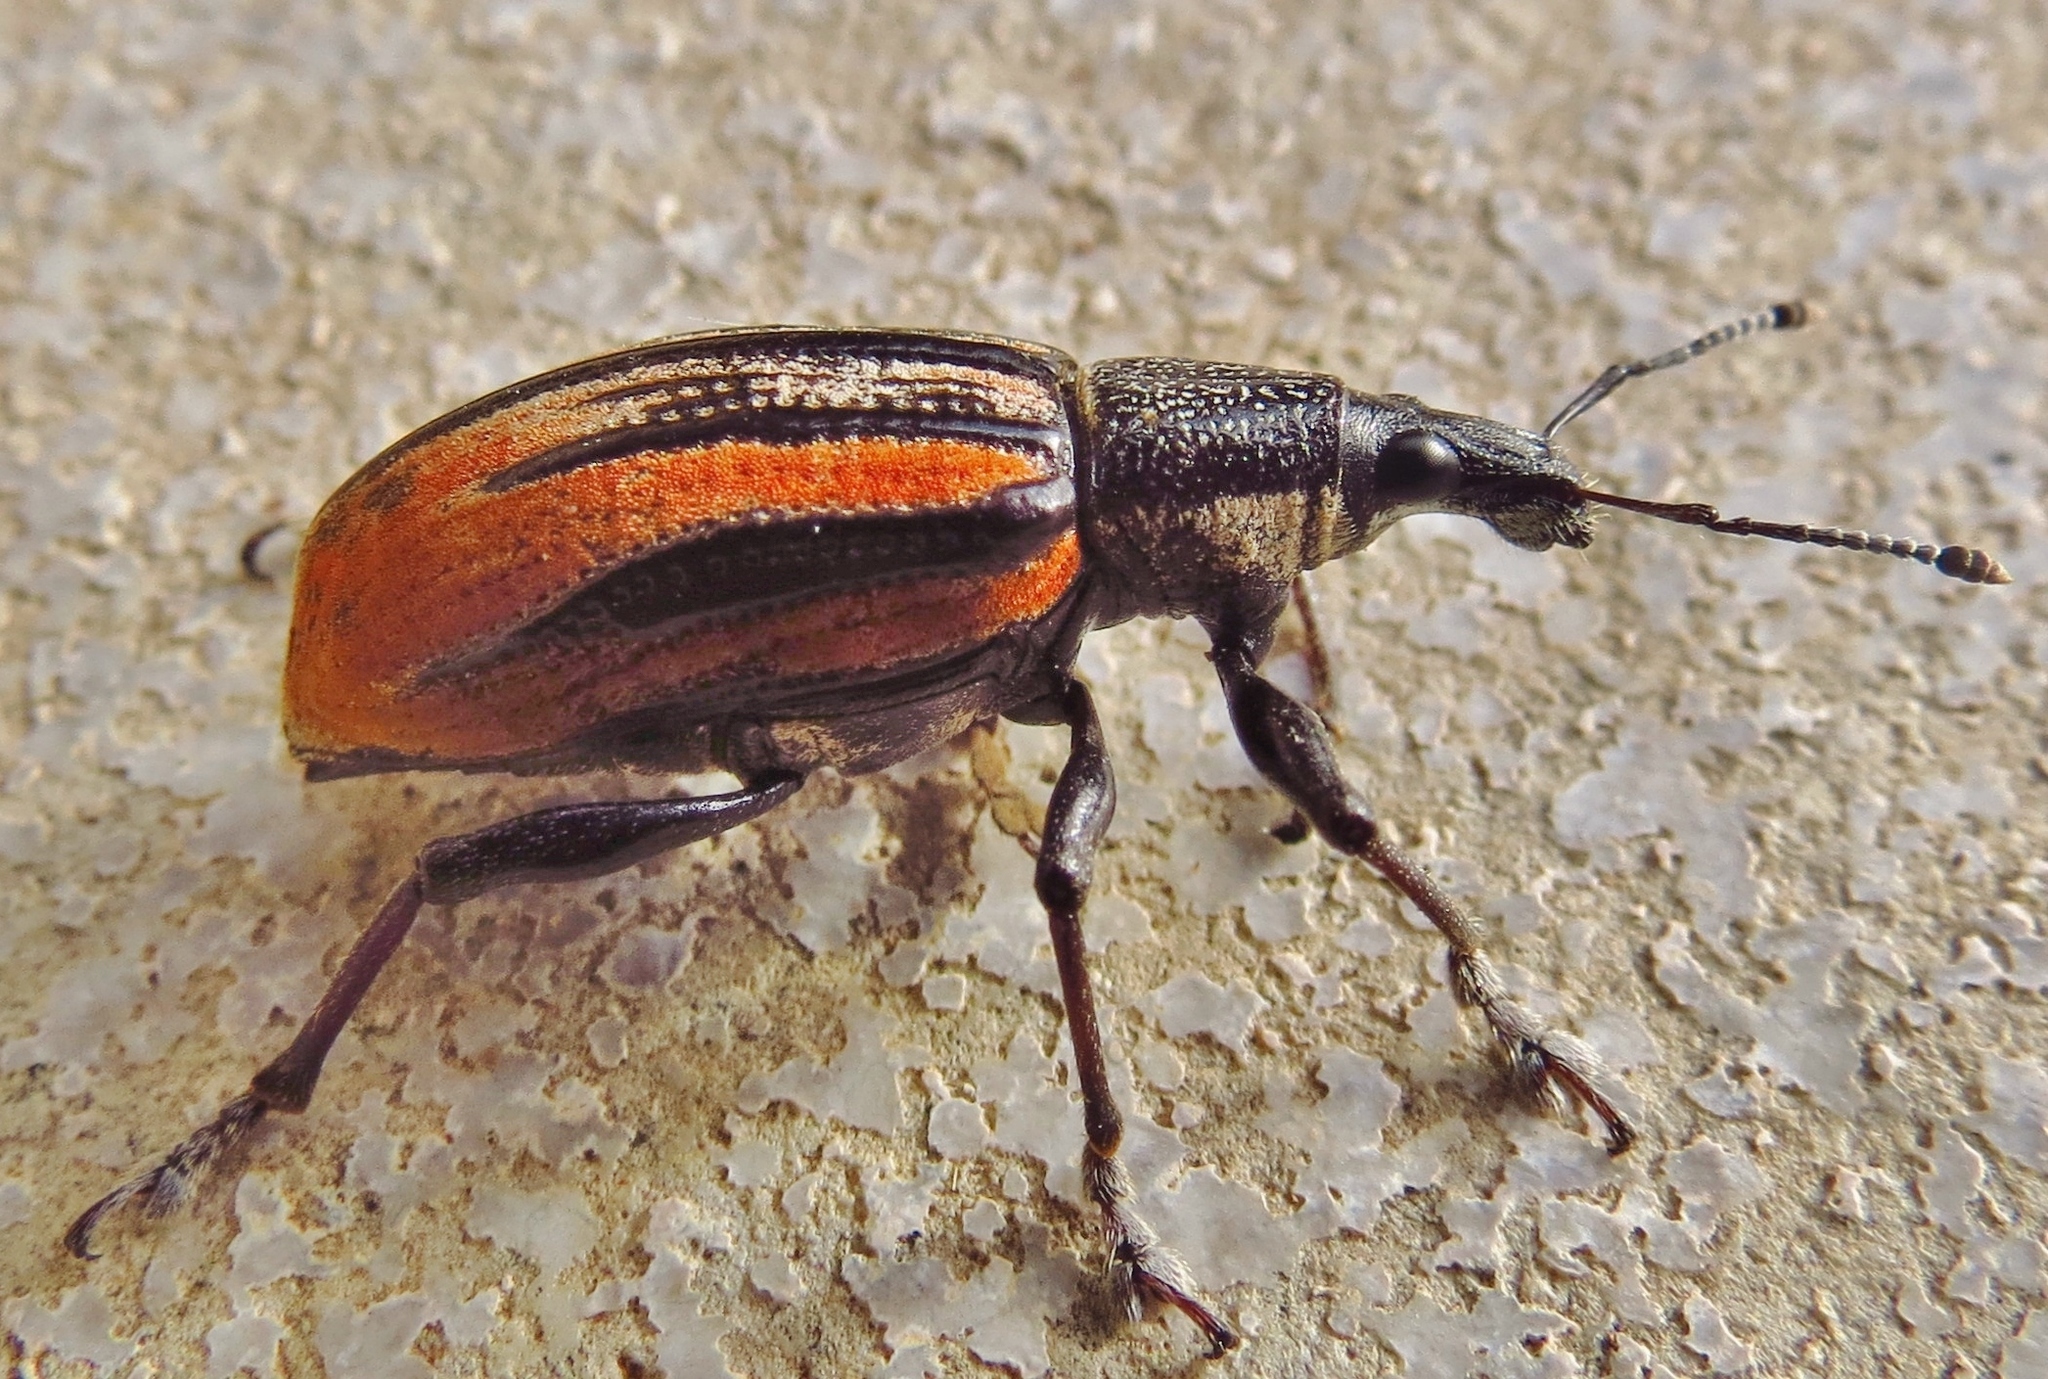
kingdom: Animalia
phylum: Arthropoda
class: Insecta
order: Coleoptera
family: Curculionidae
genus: Diaprepes
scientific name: Diaprepes abbreviatus
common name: Root weevil
